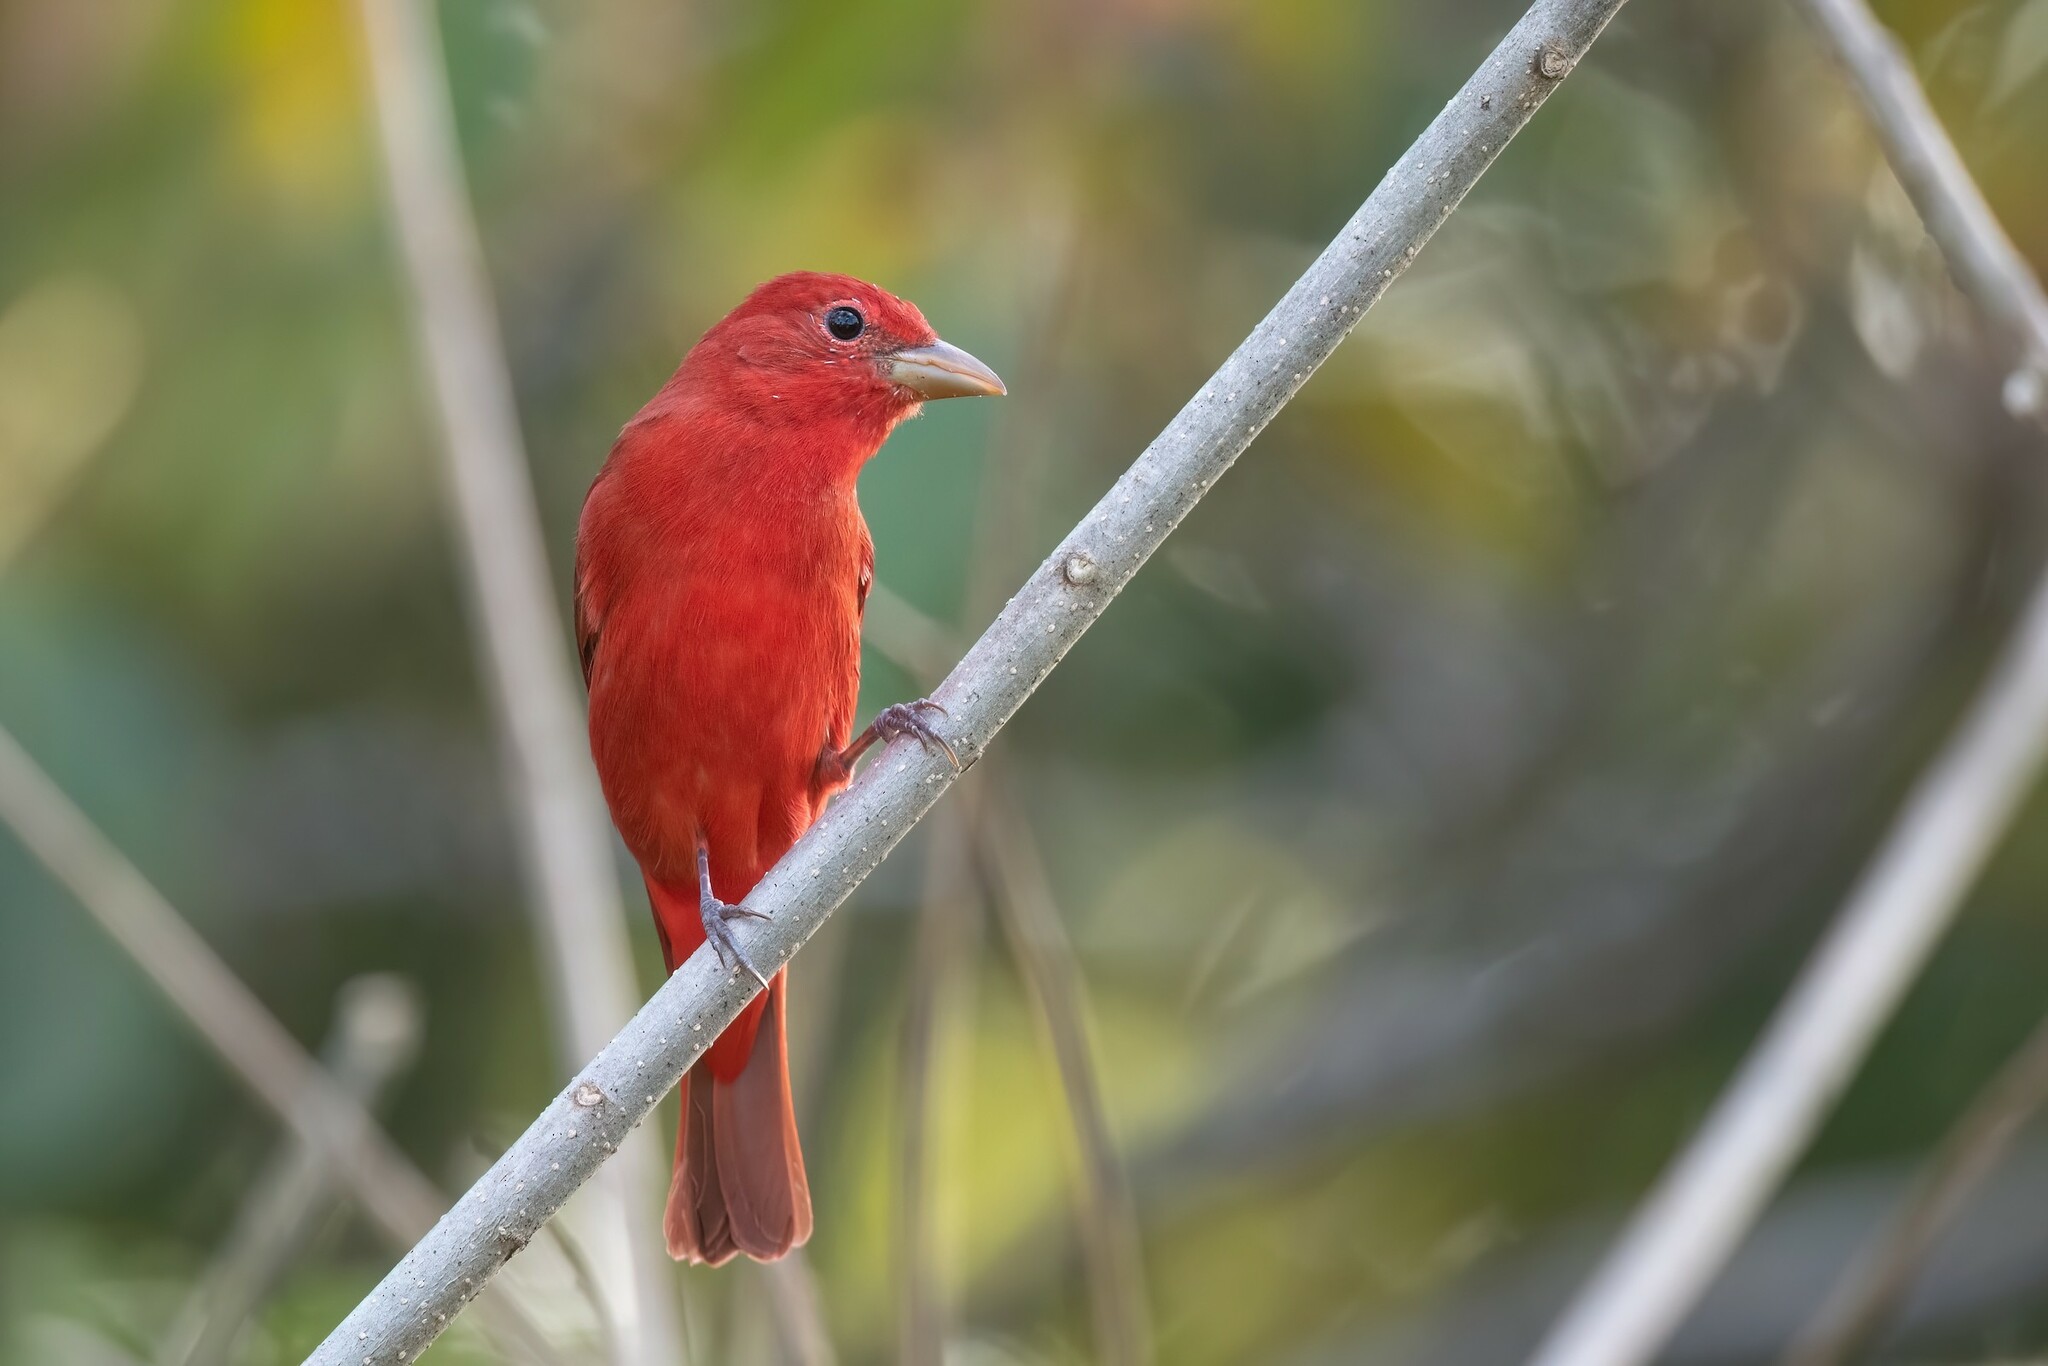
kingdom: Animalia
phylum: Chordata
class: Aves
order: Passeriformes
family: Cardinalidae
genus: Piranga
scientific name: Piranga rubra
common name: Summer tanager
